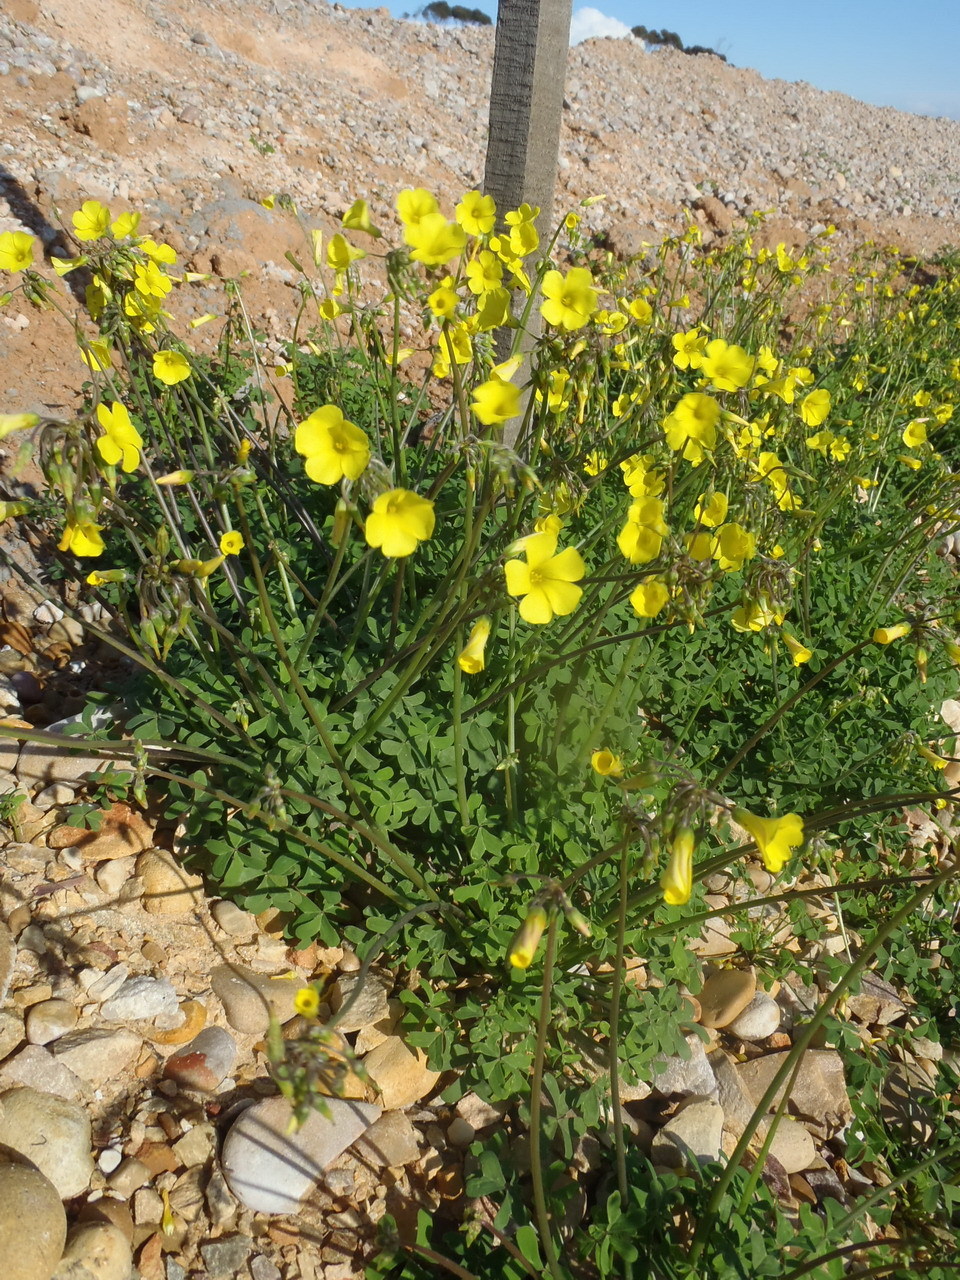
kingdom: Plantae
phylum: Tracheophyta
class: Magnoliopsida
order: Oxalidales
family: Oxalidaceae
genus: Oxalis
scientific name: Oxalis pes-caprae
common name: Bermuda-buttercup
